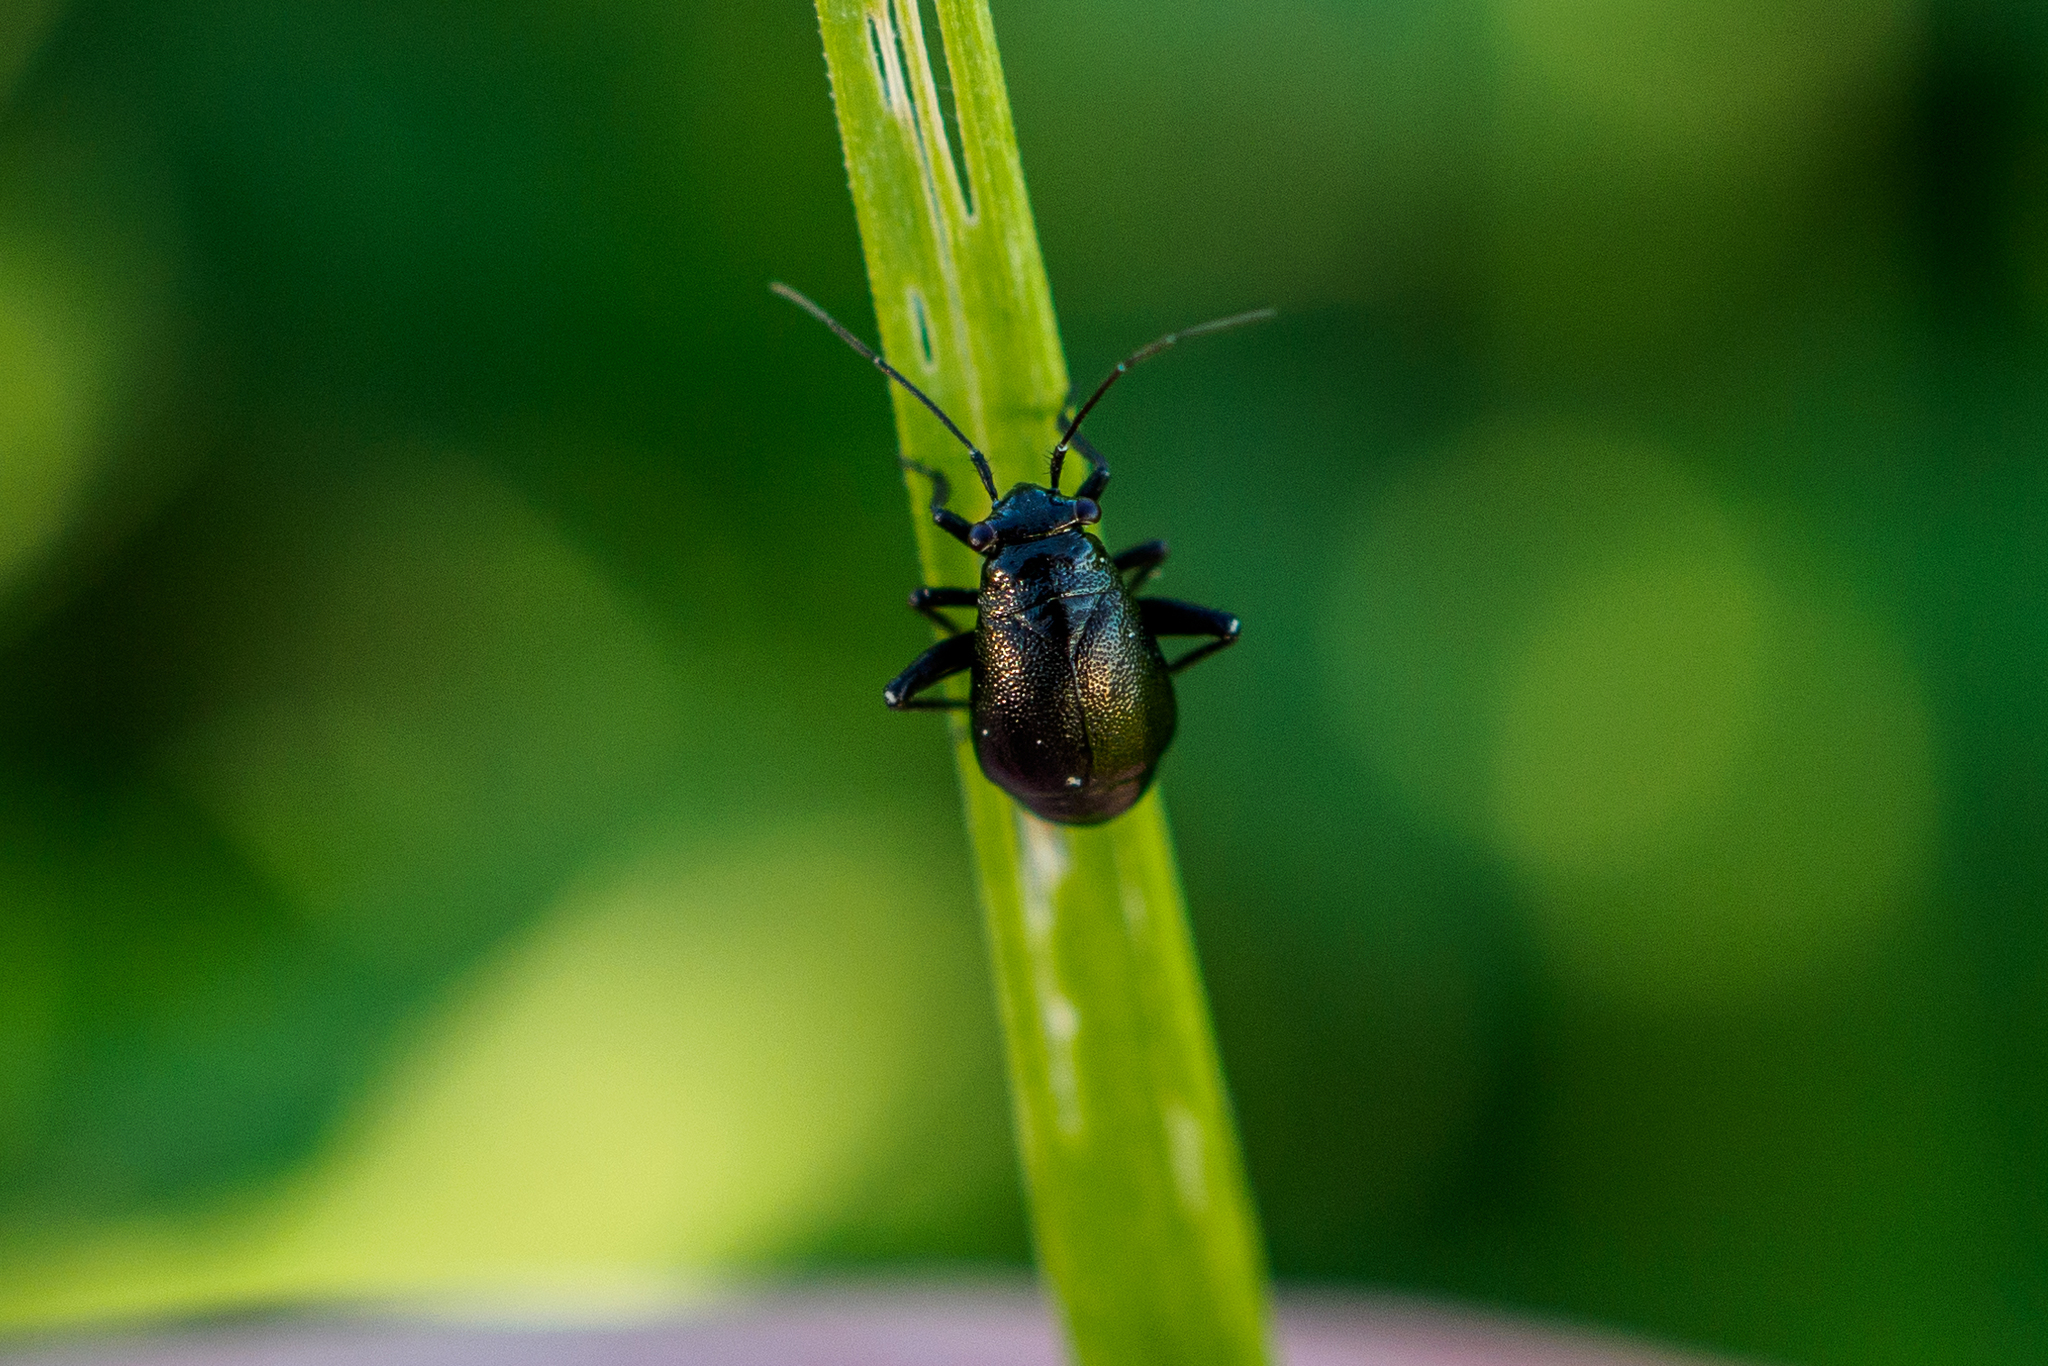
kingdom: Animalia
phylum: Arthropoda
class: Insecta
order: Hemiptera
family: Miridae
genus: Euryopicoris
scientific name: Euryopicoris nitidus
